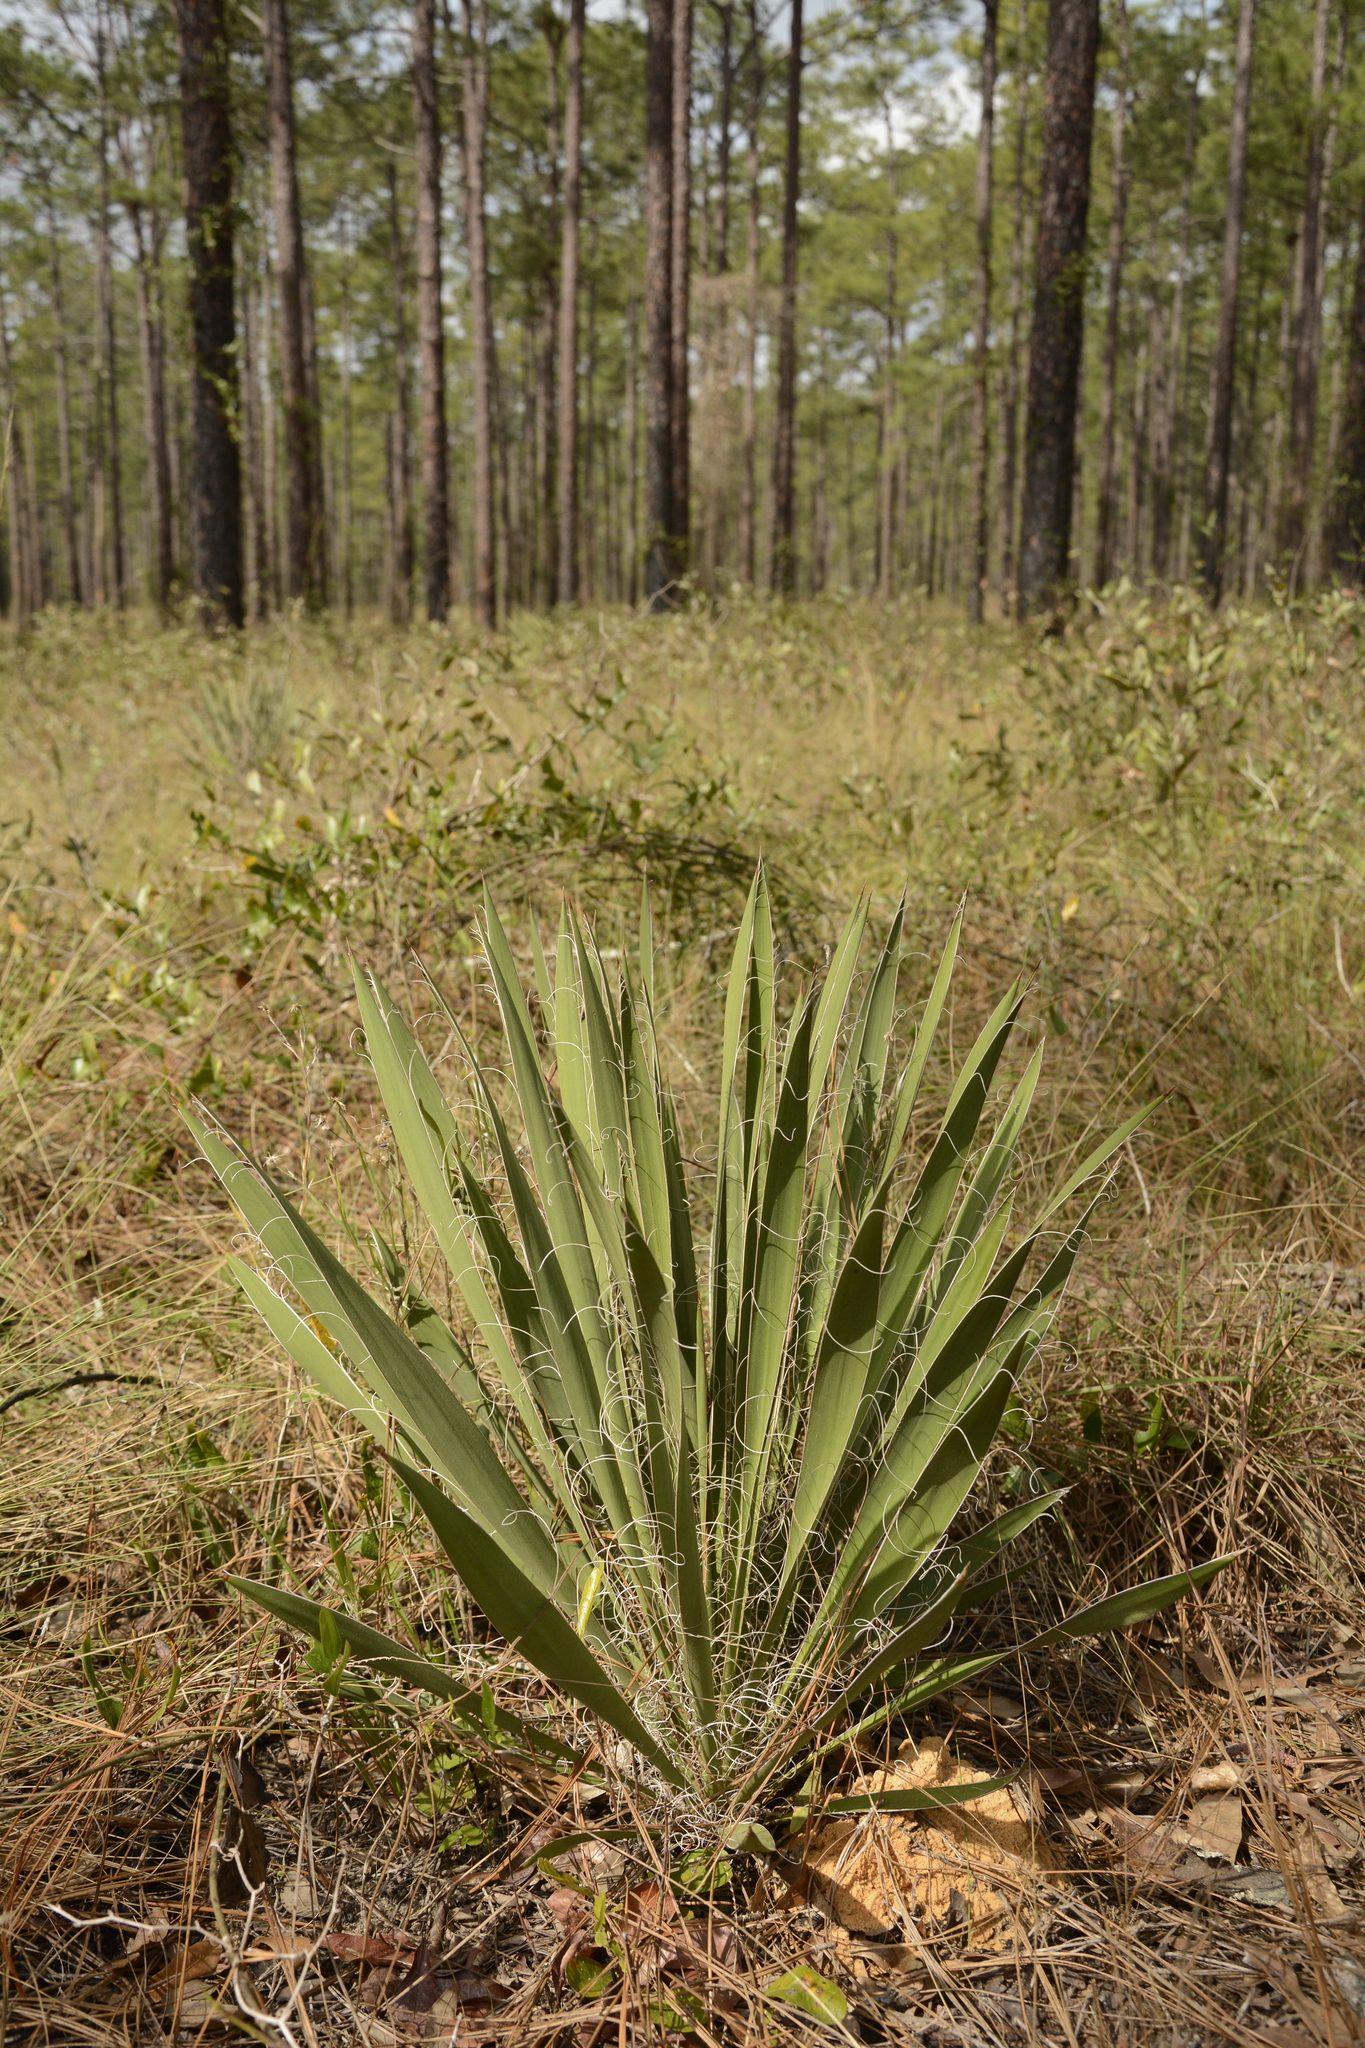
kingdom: Plantae
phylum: Tracheophyta
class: Liliopsida
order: Asparagales
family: Asparagaceae
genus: Yucca
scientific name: Yucca filamentosa
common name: Adam's-needle
